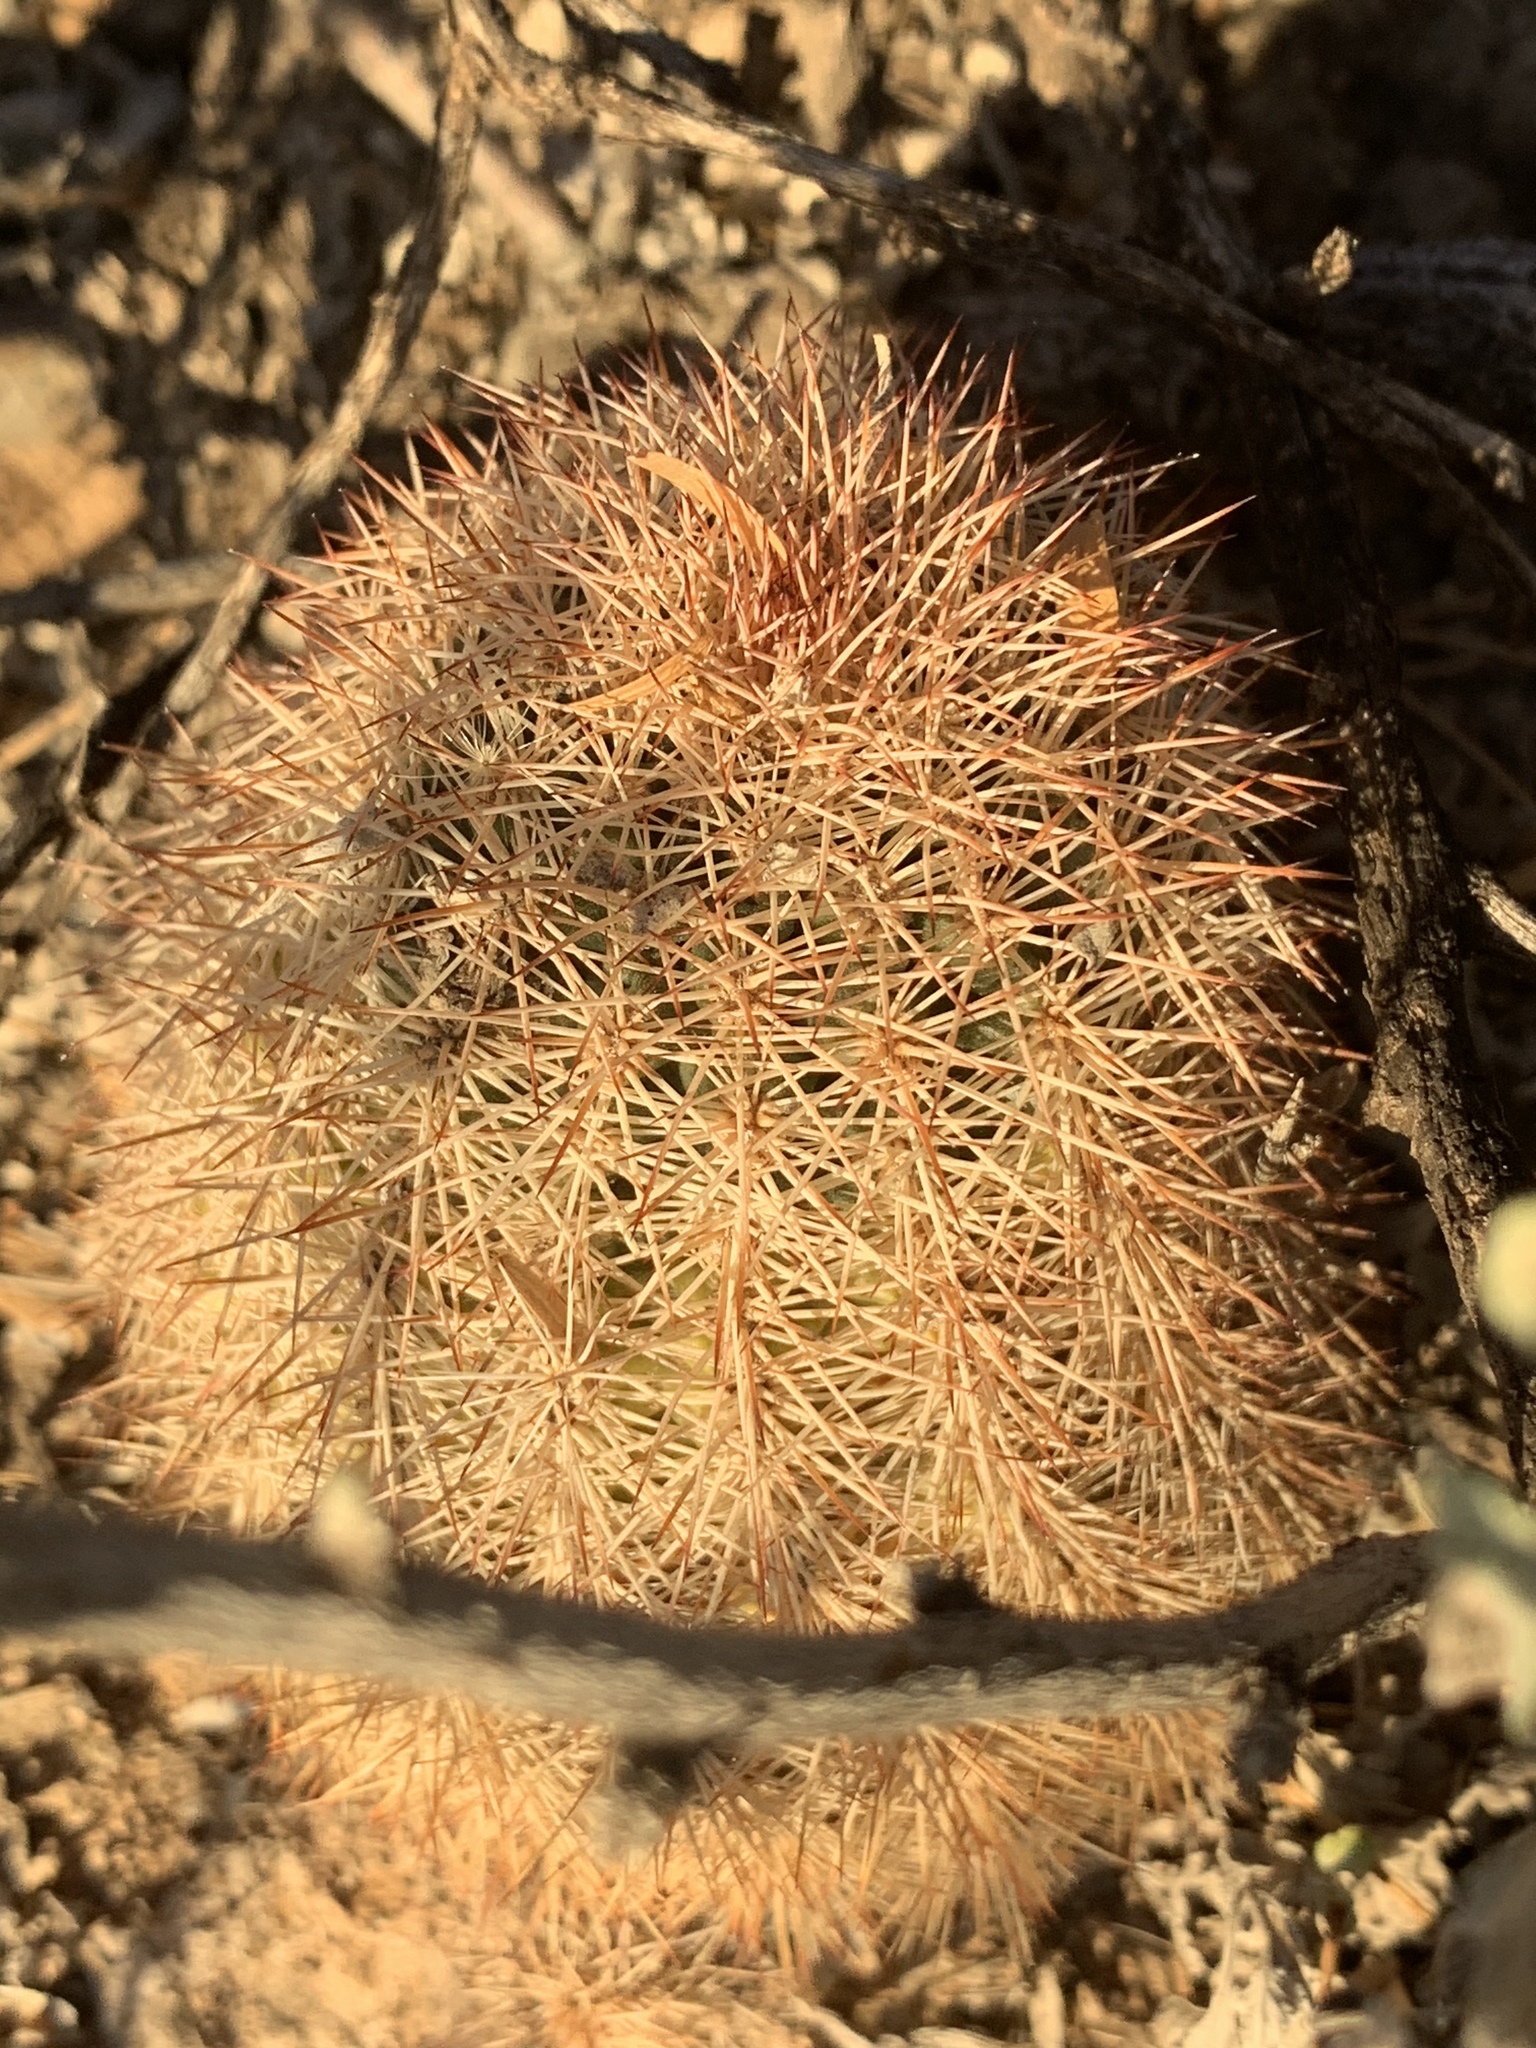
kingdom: Plantae
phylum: Tracheophyta
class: Magnoliopsida
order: Caryophyllales
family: Cactaceae
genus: Echinocereus
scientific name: Echinocereus dasyacanthus
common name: Spiny hedgehog cactus
